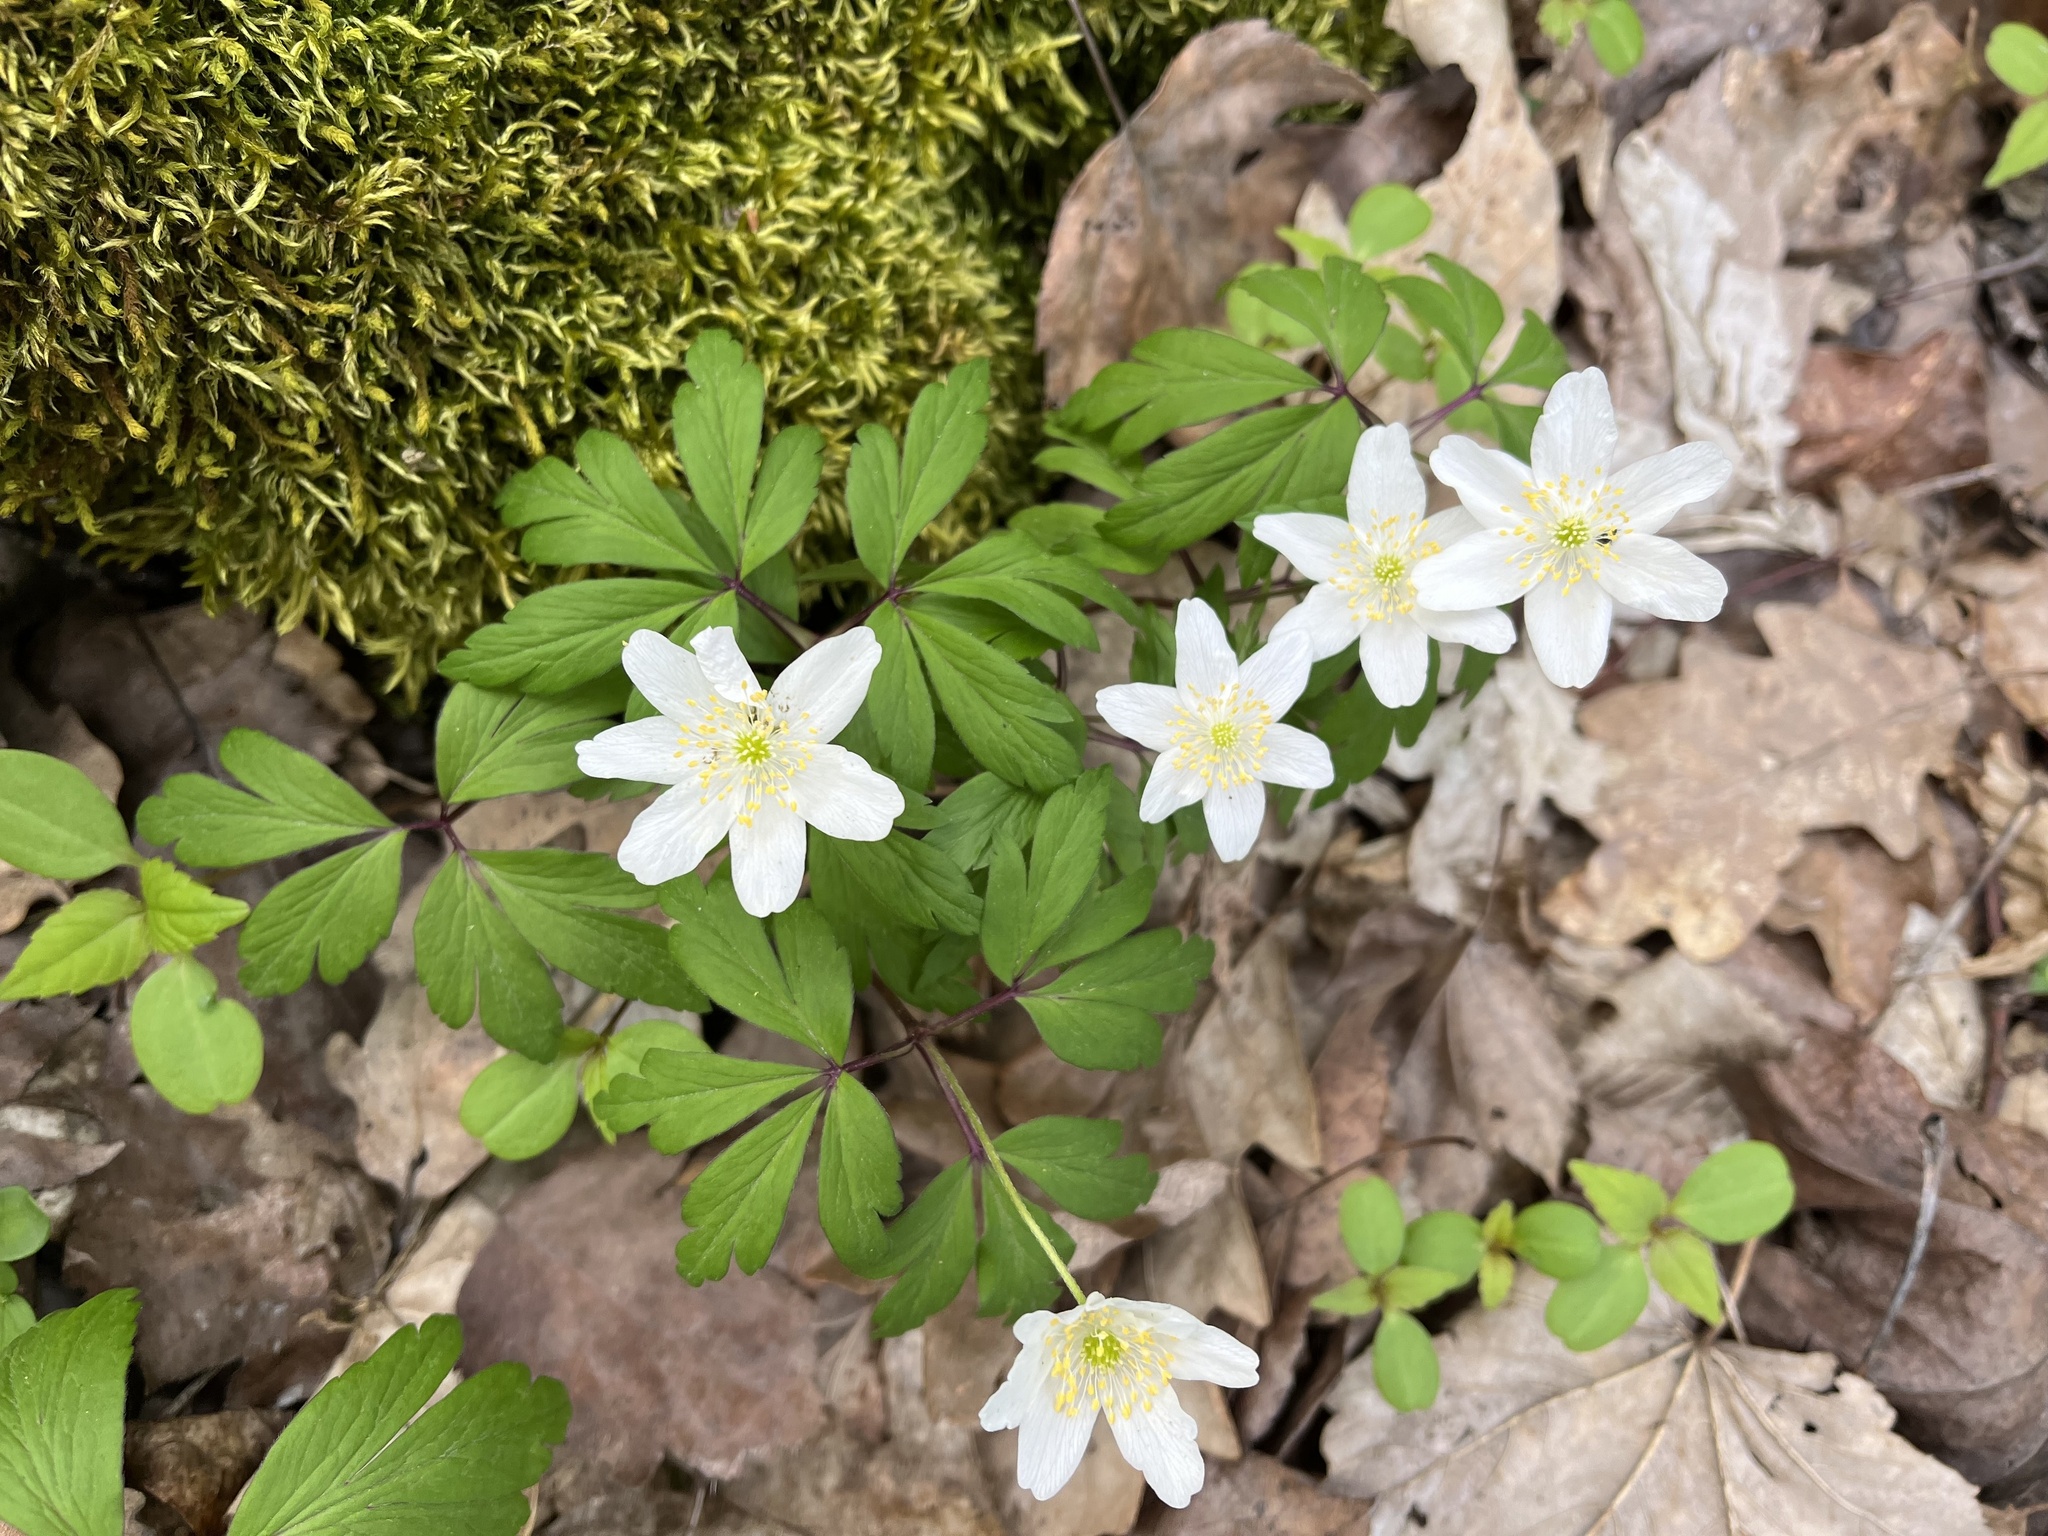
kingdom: Plantae
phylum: Tracheophyta
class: Magnoliopsida
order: Ranunculales
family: Ranunculaceae
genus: Anemone
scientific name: Anemone nemorosa
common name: Wood anemone
